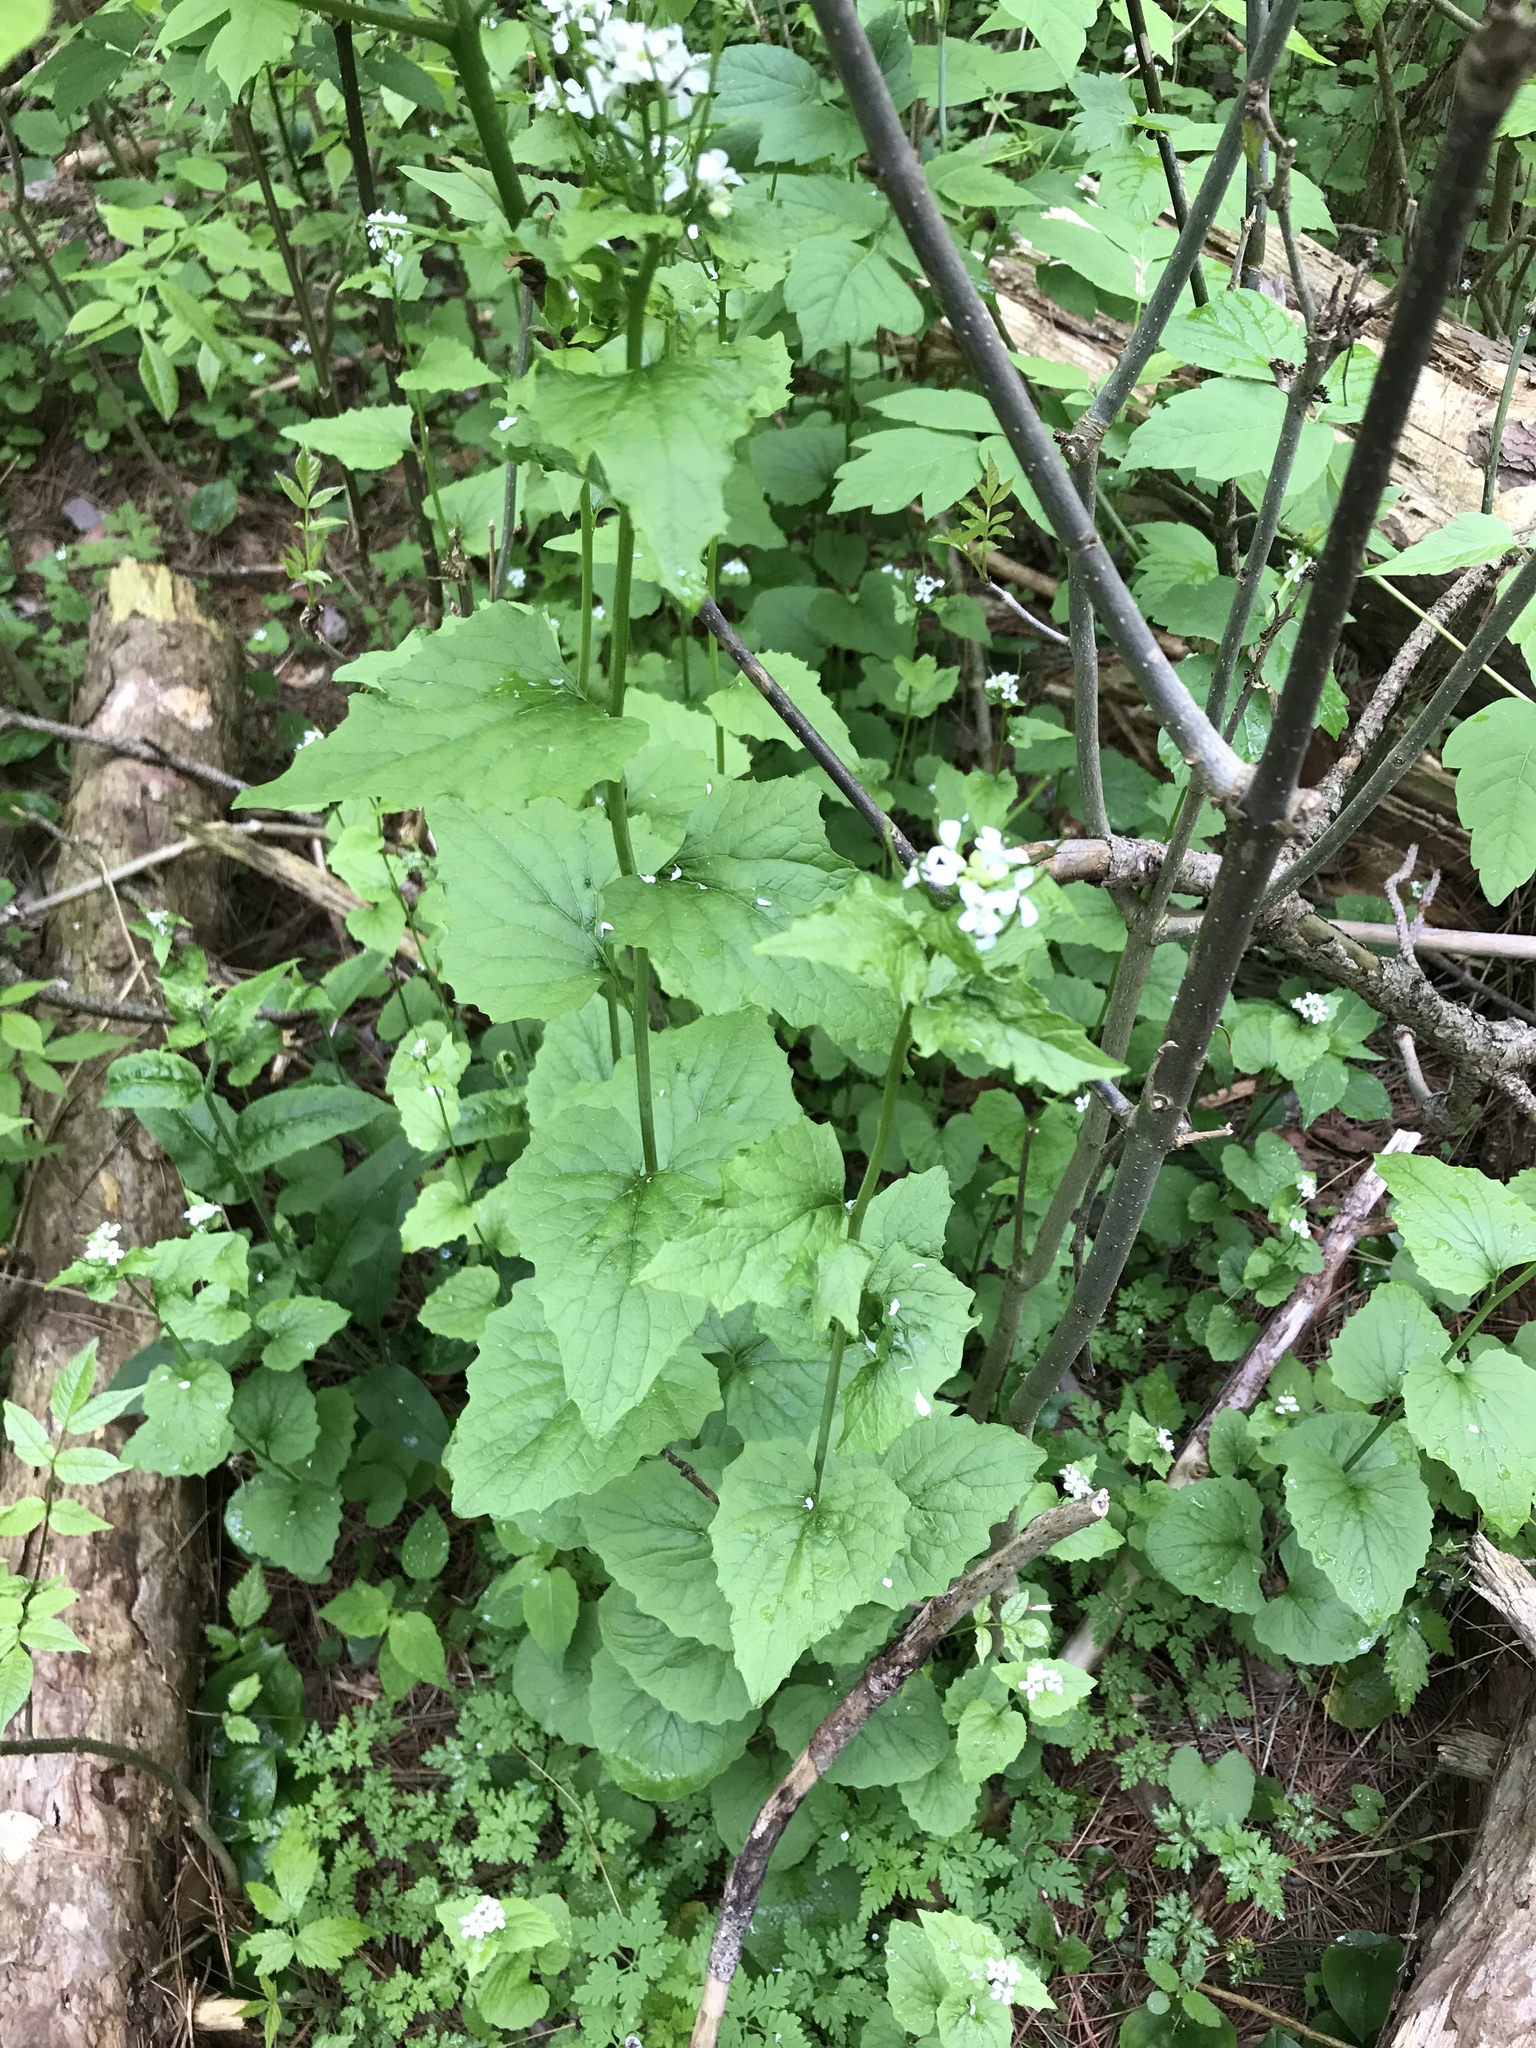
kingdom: Plantae
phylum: Tracheophyta
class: Magnoliopsida
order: Brassicales
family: Brassicaceae
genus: Alliaria
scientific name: Alliaria petiolata
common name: Garlic mustard
